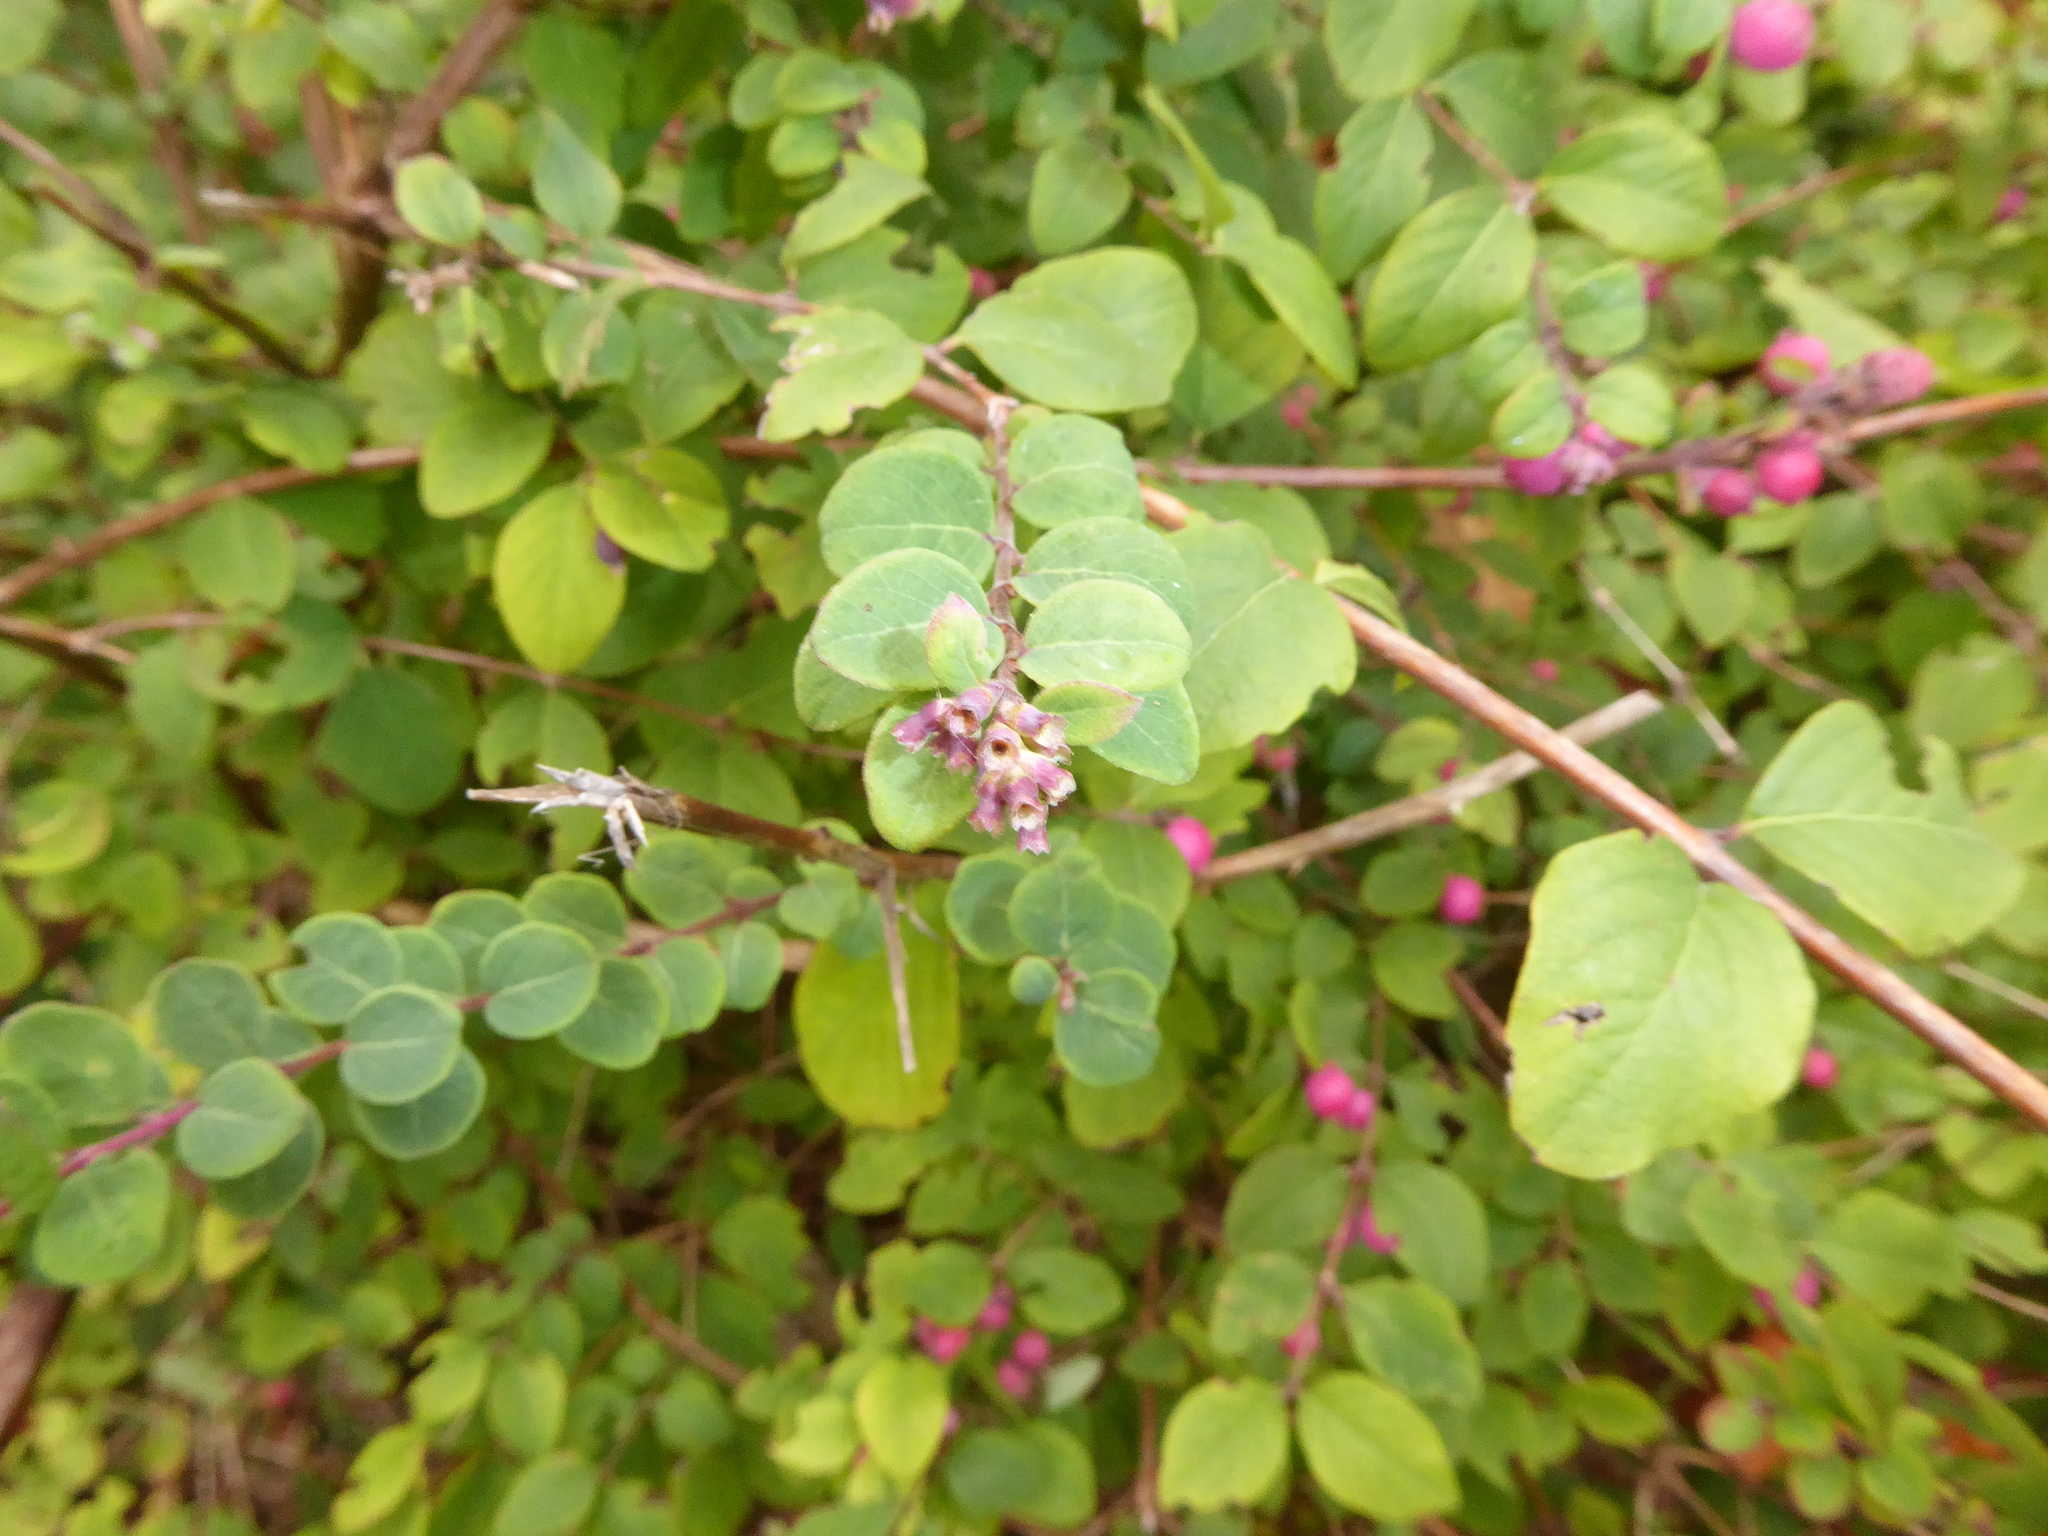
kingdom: Plantae
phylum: Tracheophyta
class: Magnoliopsida
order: Dipsacales
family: Caprifoliaceae
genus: Symphoricarpos
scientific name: Symphoricarpos chenaultii
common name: Hybrid coralberry
